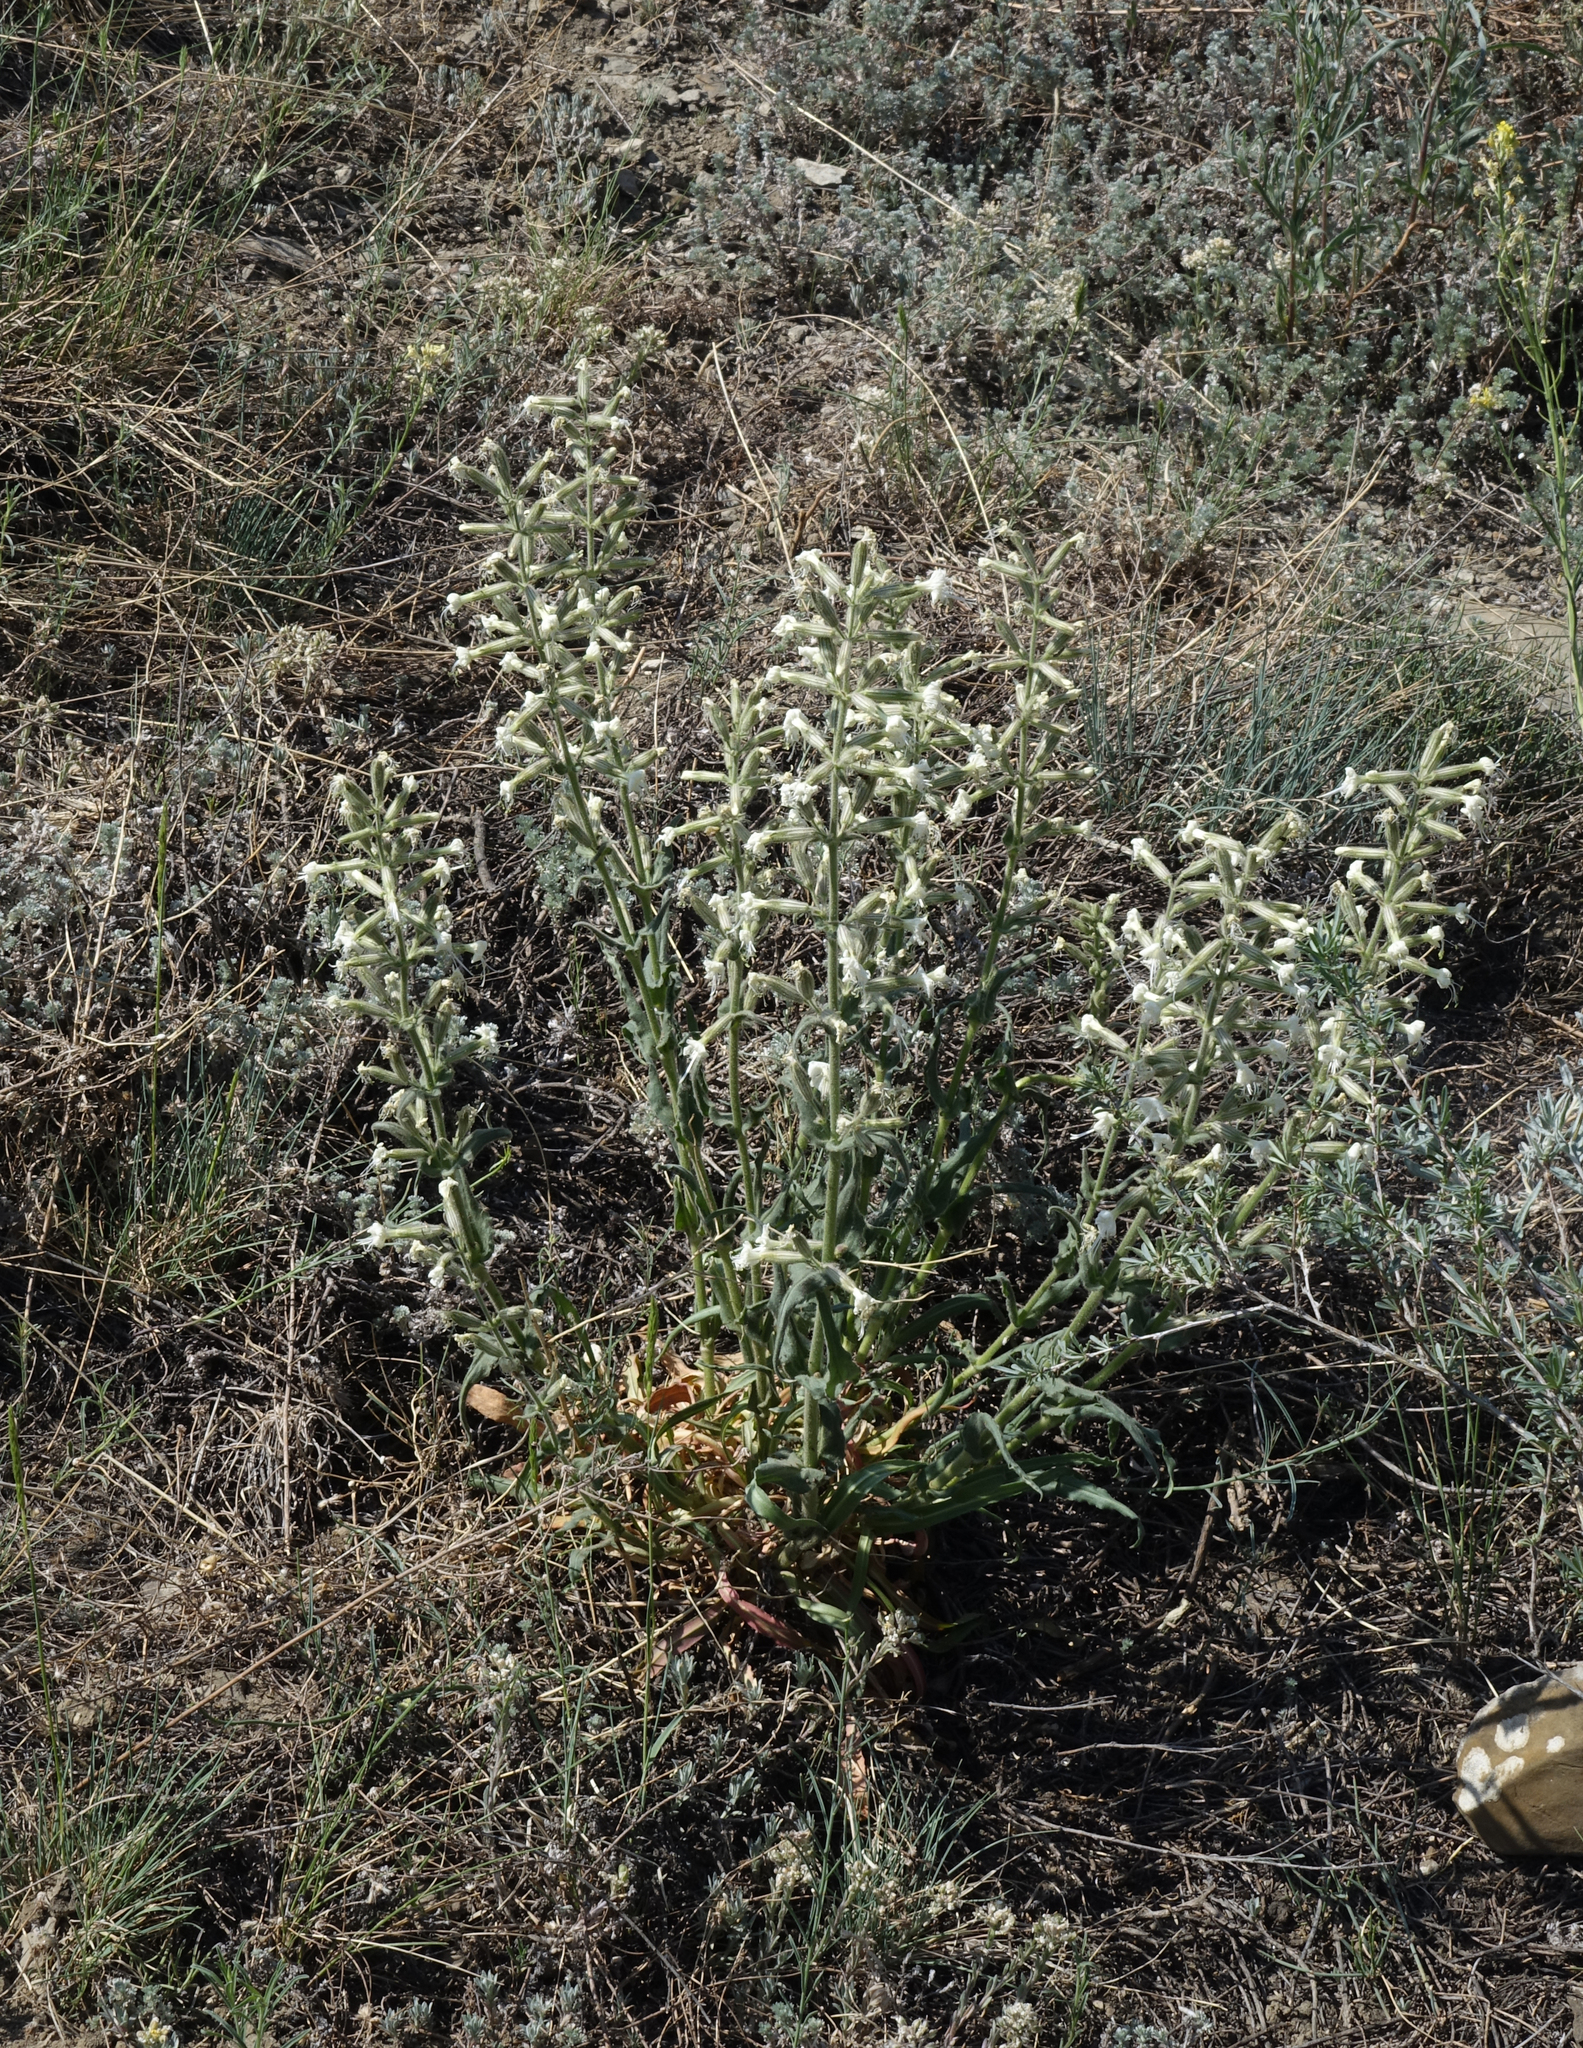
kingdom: Plantae
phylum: Tracheophyta
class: Magnoliopsida
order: Caryophyllales
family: Caryophyllaceae
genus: Silene
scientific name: Silene viscosa
